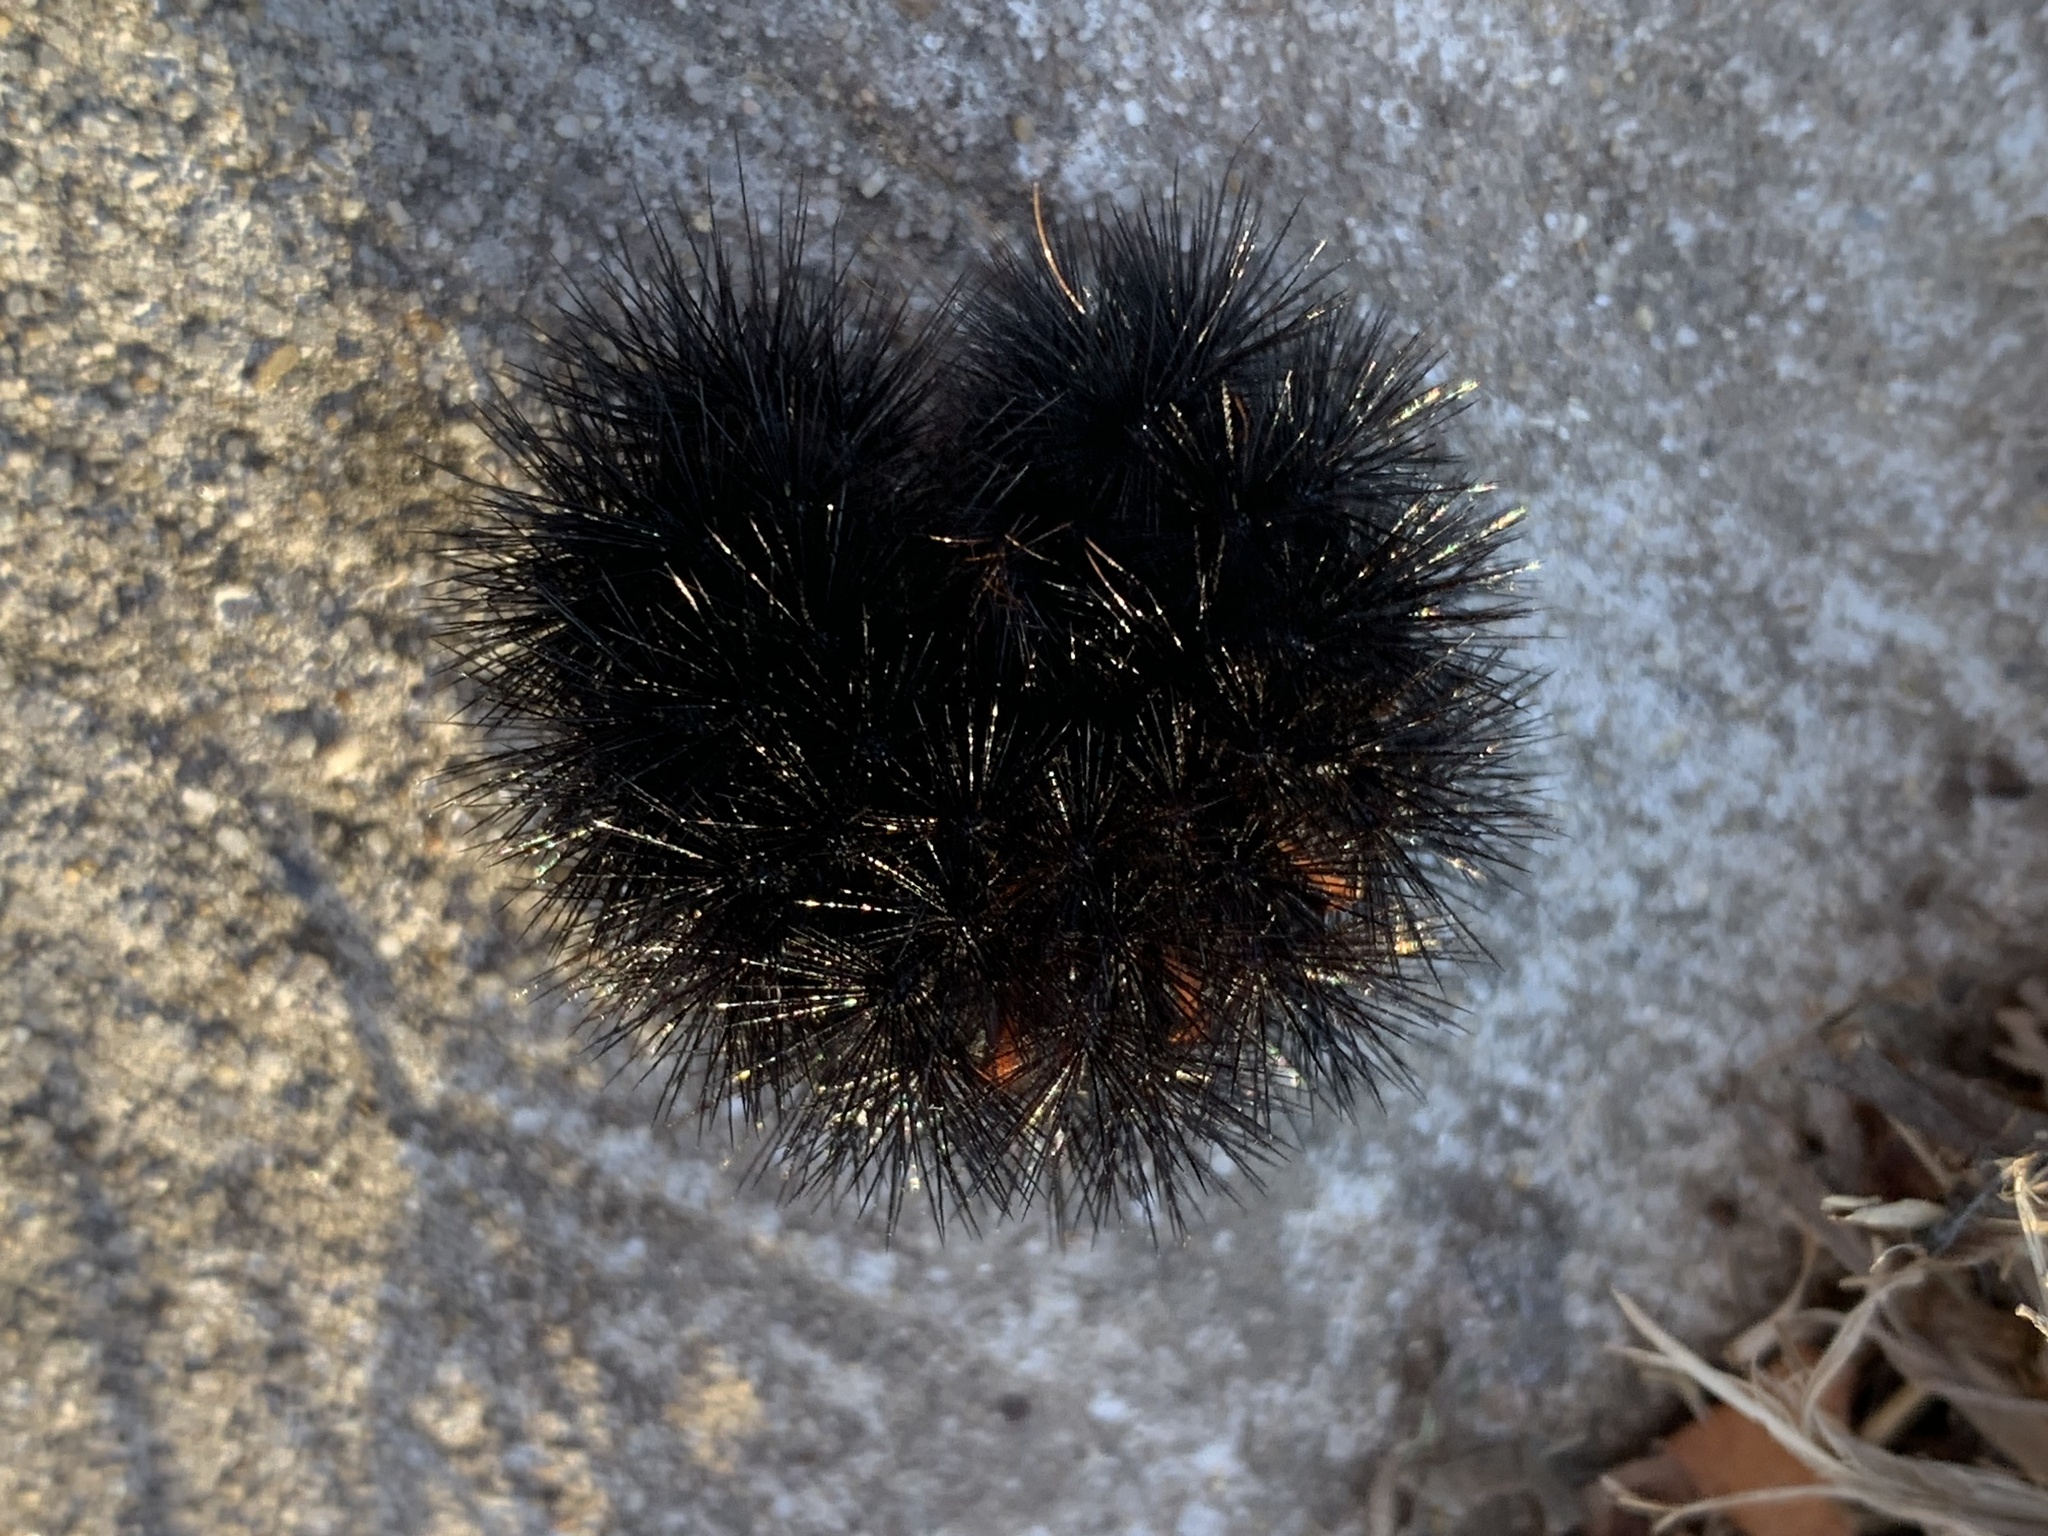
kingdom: Animalia
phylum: Arthropoda
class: Insecta
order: Lepidoptera
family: Erebidae
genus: Hypercompe
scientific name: Hypercompe scribonia
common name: Giant leopard moth
